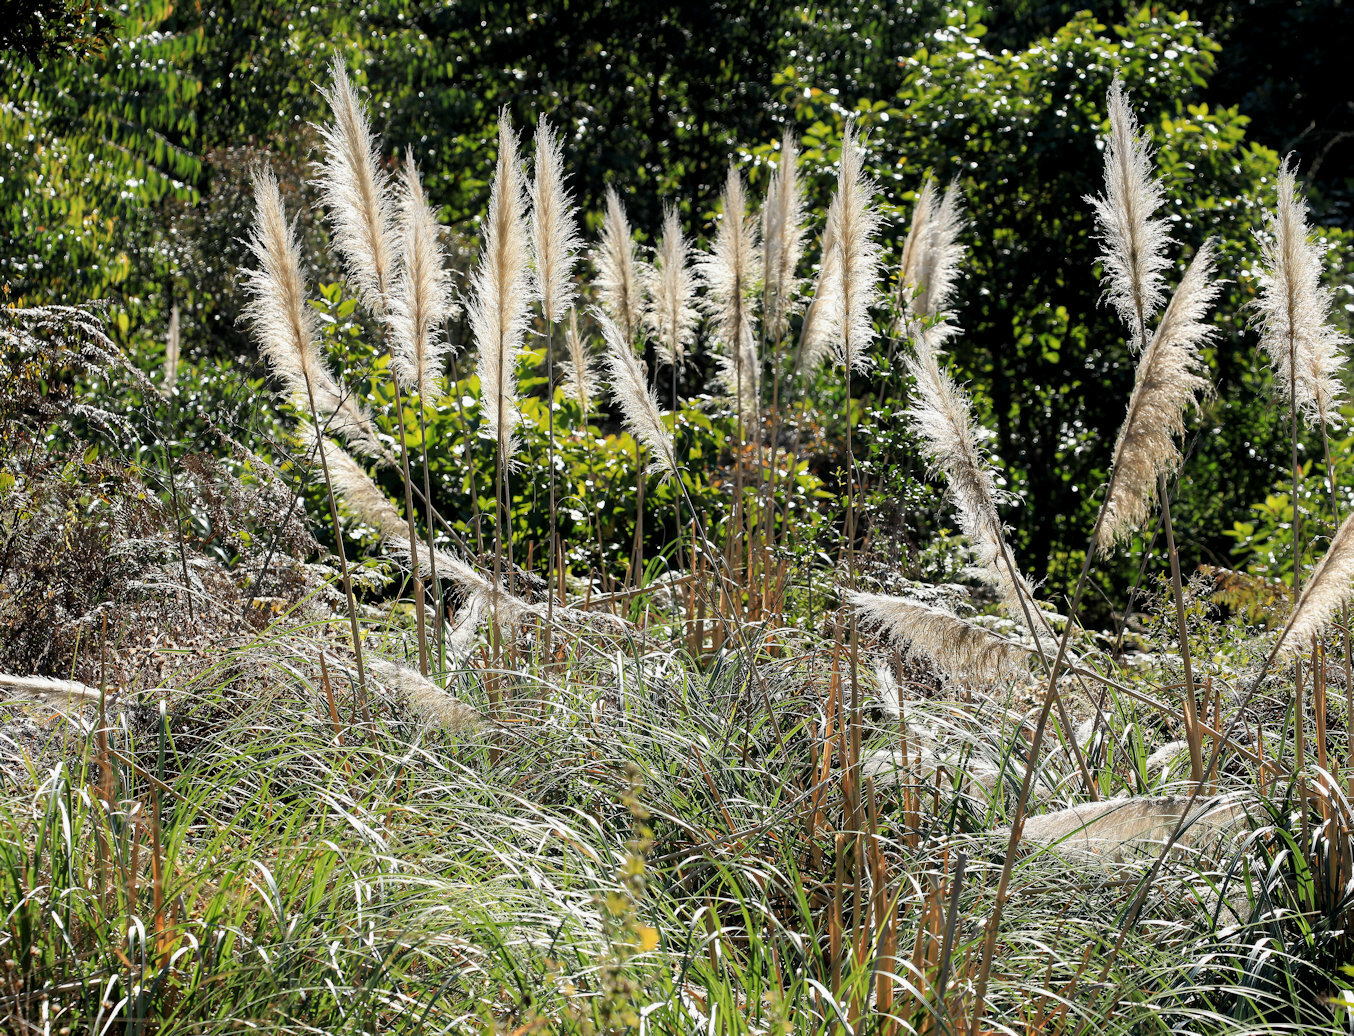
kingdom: Plantae
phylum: Tracheophyta
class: Liliopsida
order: Poales
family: Poaceae
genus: Cortaderia
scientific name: Cortaderia selloana
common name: Uruguayan pampas grass
